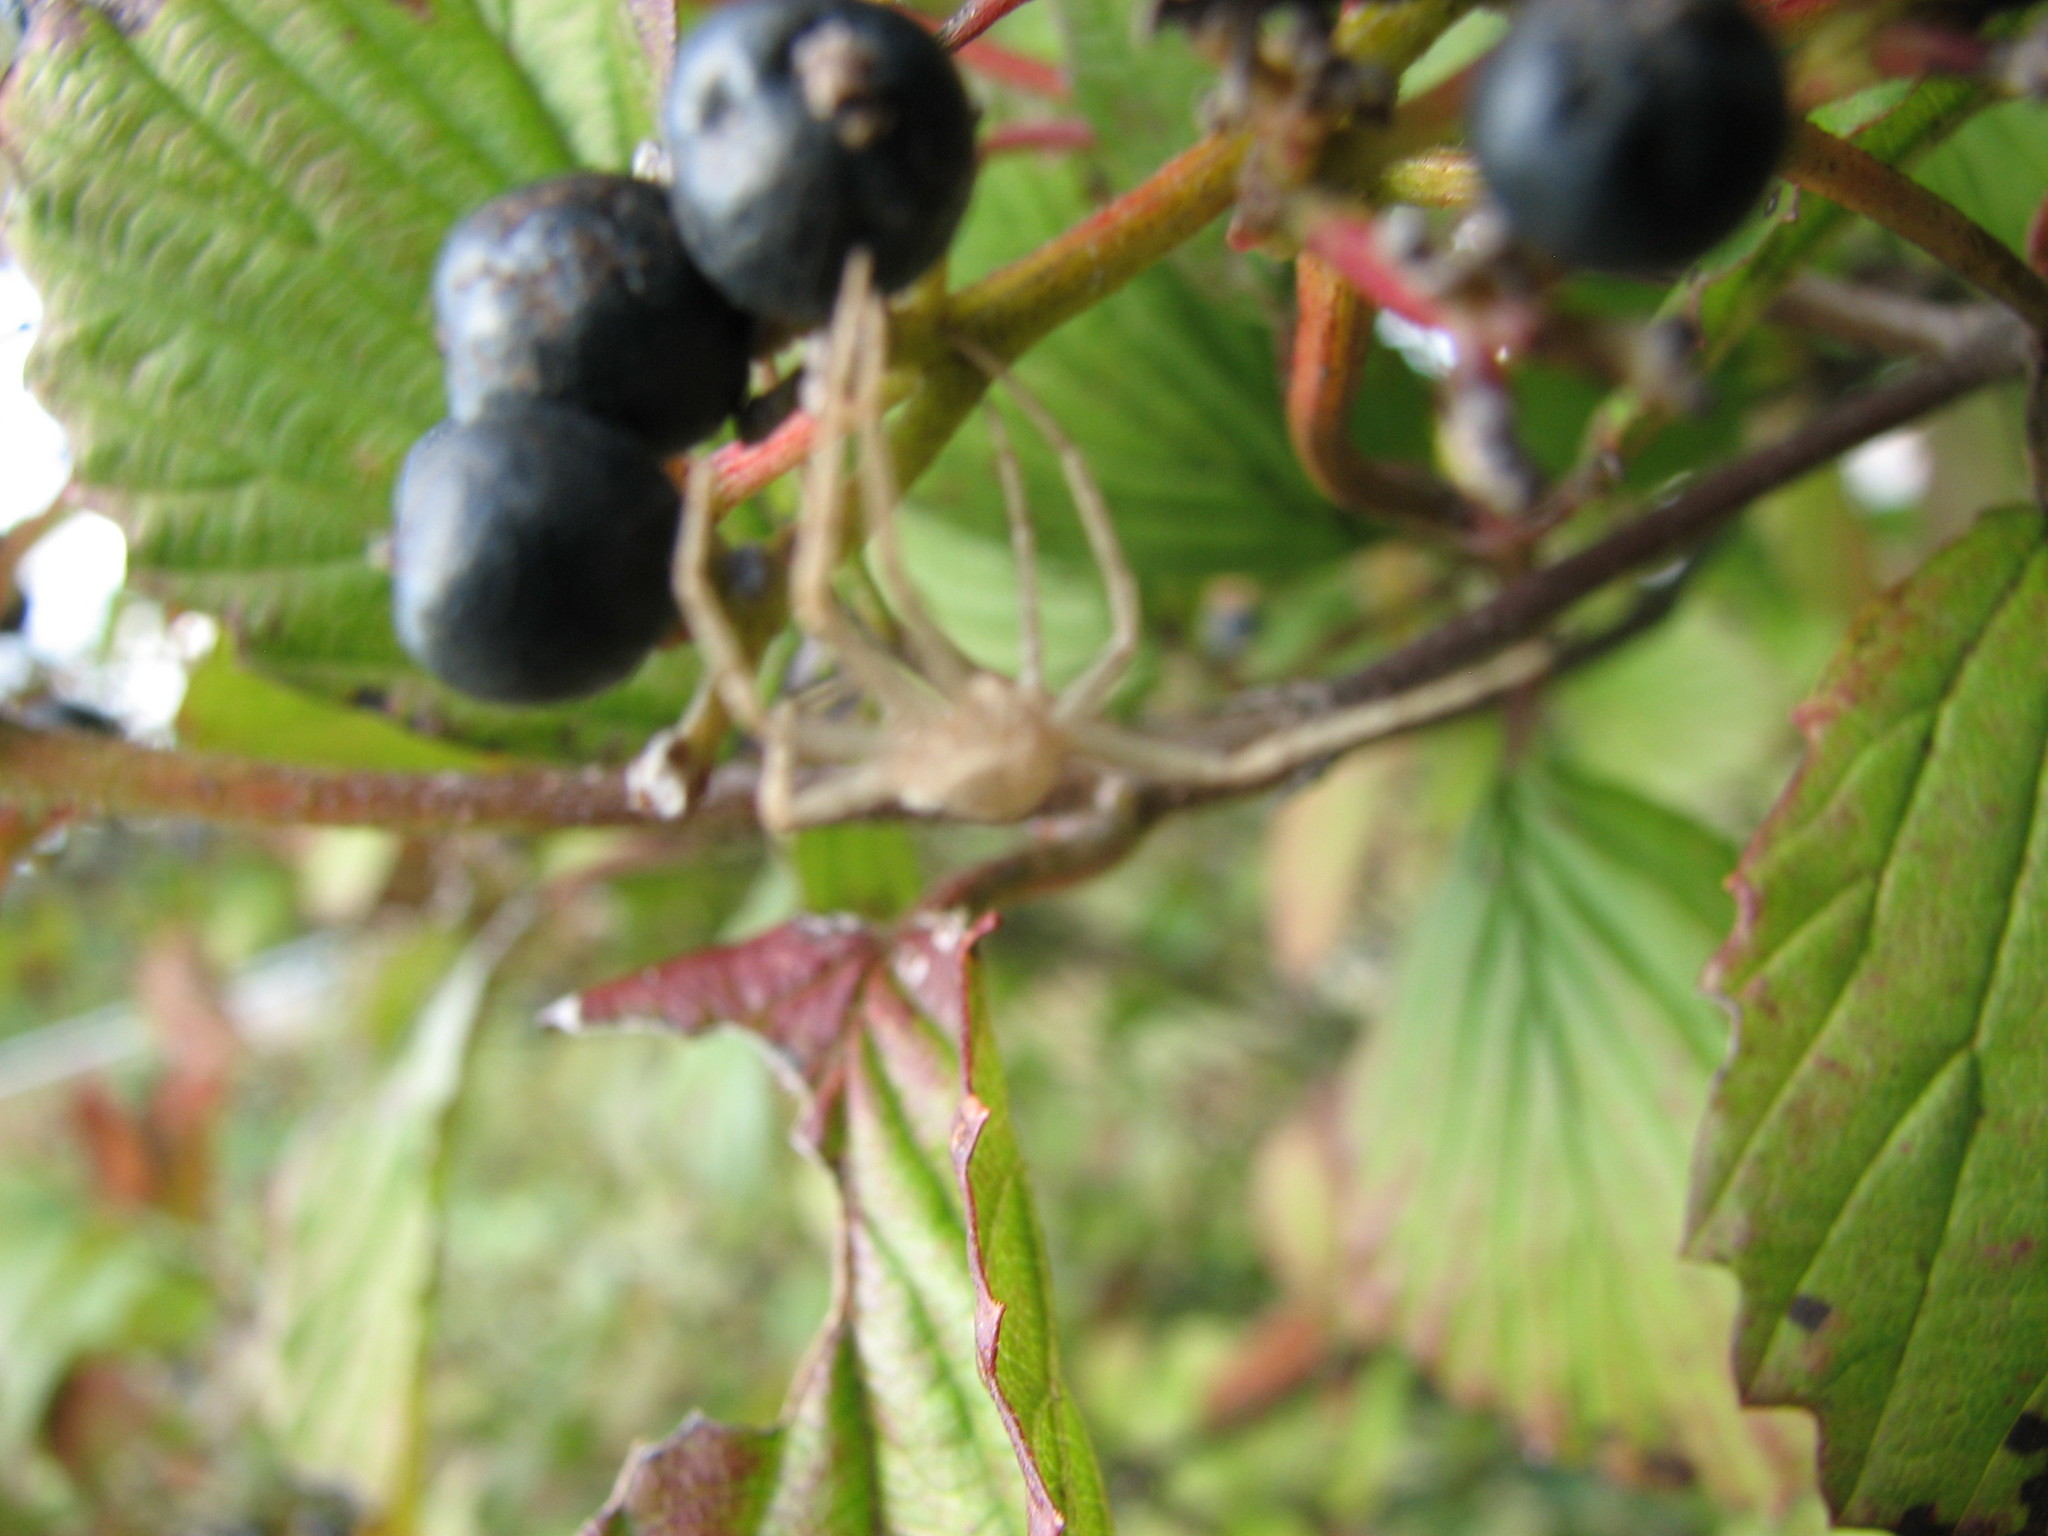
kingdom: Plantae
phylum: Tracheophyta
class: Magnoliopsida
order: Dipsacales
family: Viburnaceae
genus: Viburnum
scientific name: Viburnum dentatum
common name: Arrow-wood
